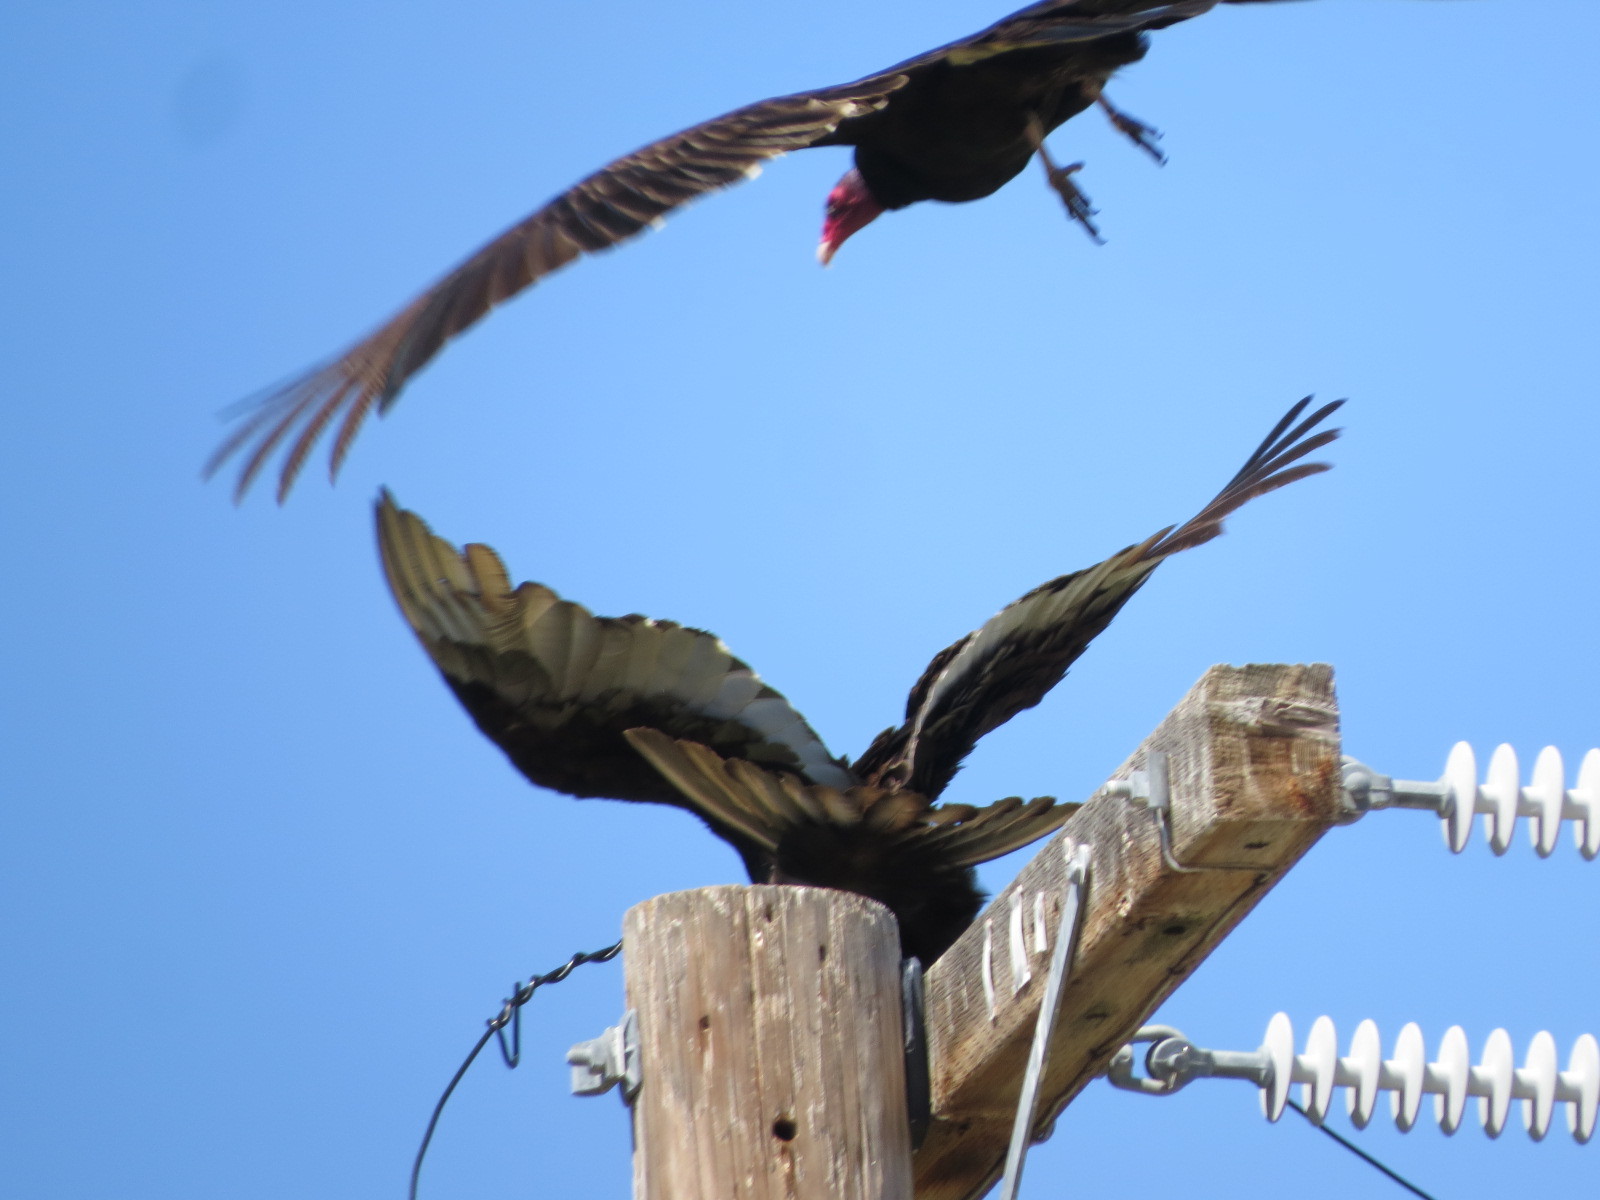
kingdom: Animalia
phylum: Chordata
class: Aves
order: Accipitriformes
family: Cathartidae
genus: Cathartes
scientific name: Cathartes aura
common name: Turkey vulture
